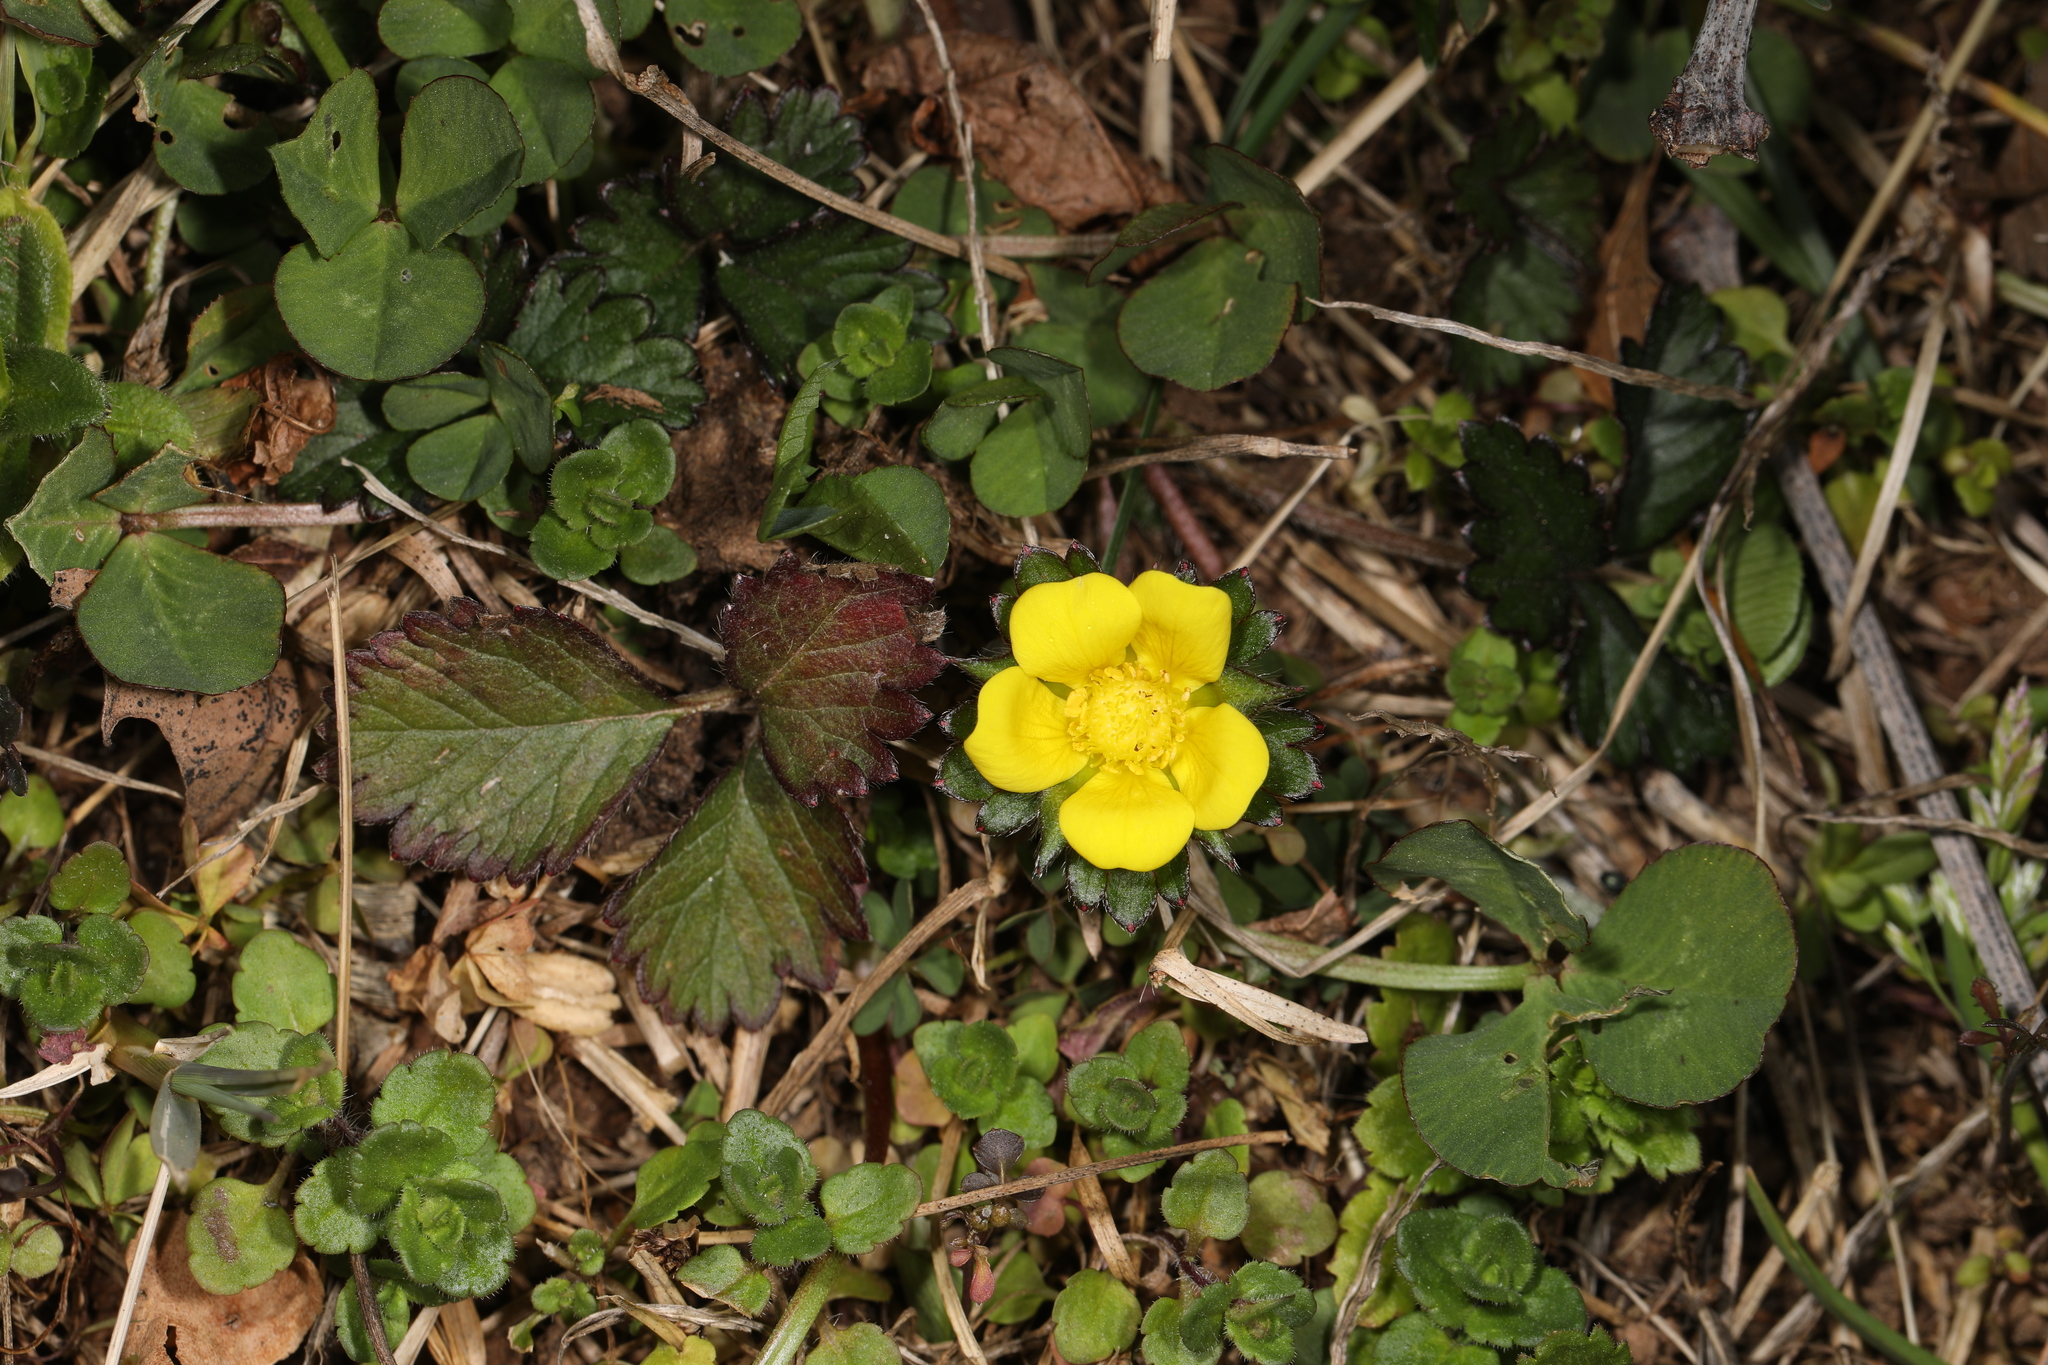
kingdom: Plantae
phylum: Tracheophyta
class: Magnoliopsida
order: Rosales
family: Rosaceae
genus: Potentilla
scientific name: Potentilla indica
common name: Yellow-flowered strawberry
